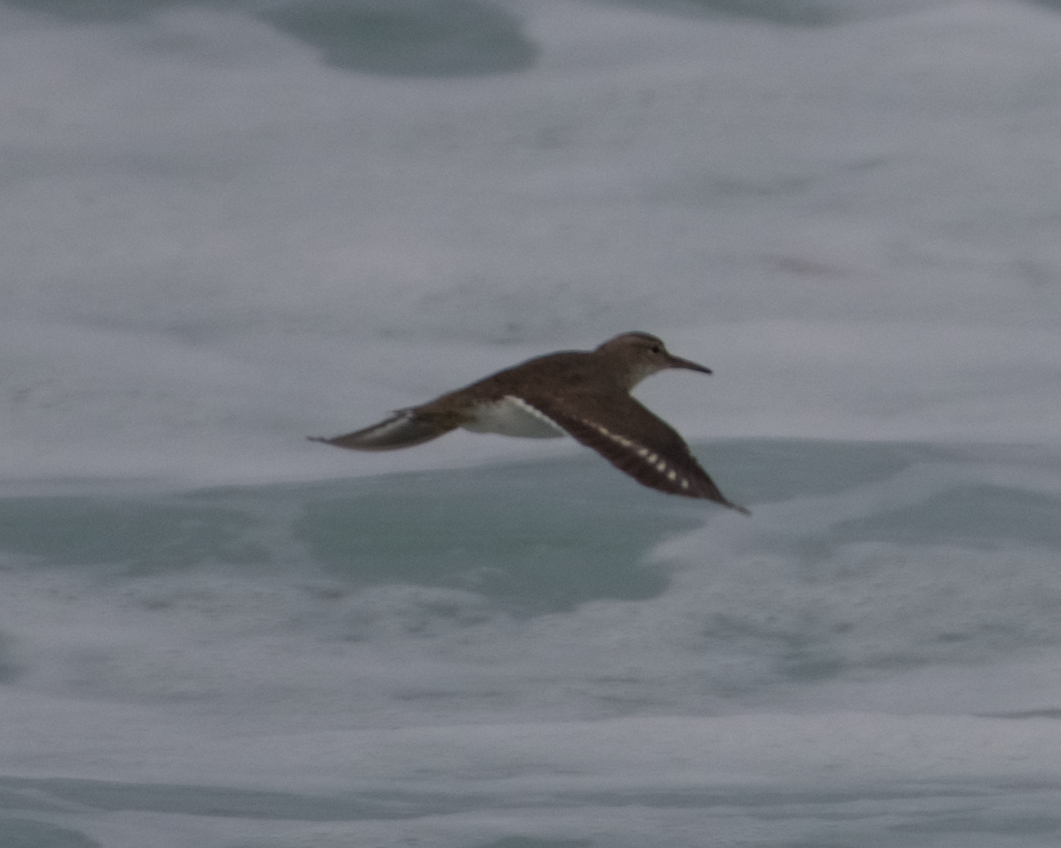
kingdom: Animalia
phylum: Chordata
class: Aves
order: Charadriiformes
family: Scolopacidae
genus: Actitis
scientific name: Actitis macularius
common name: Spotted sandpiper
